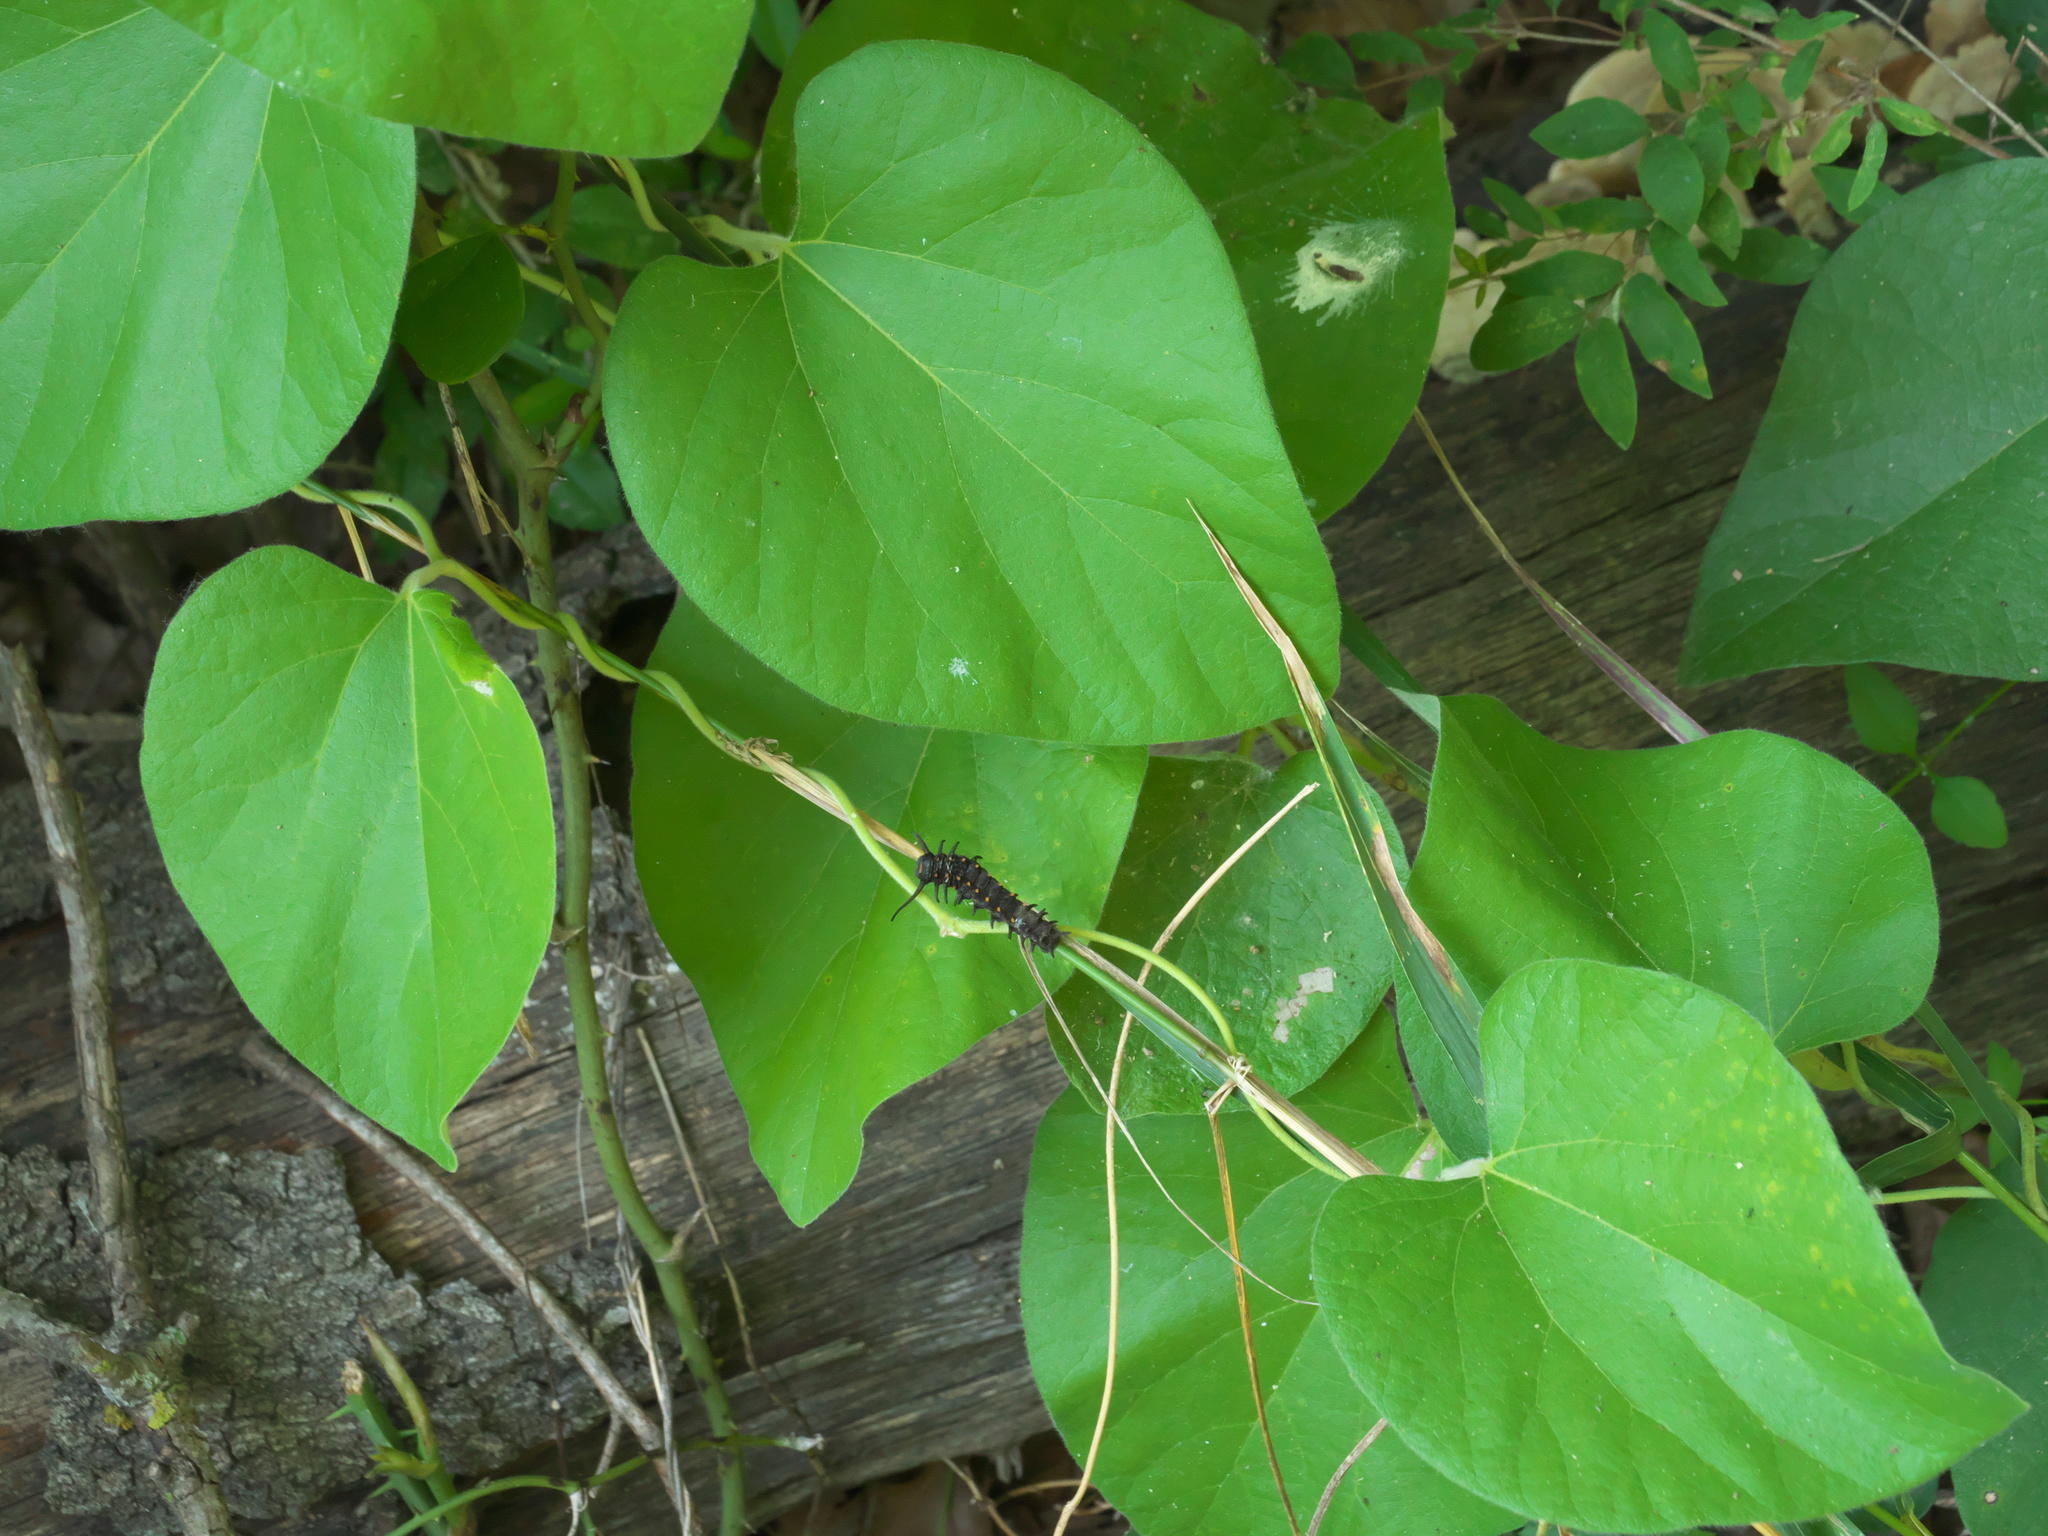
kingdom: Animalia
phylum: Arthropoda
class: Insecta
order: Lepidoptera
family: Papilionidae
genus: Battus
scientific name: Battus philenor
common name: Pipevine swallowtail
